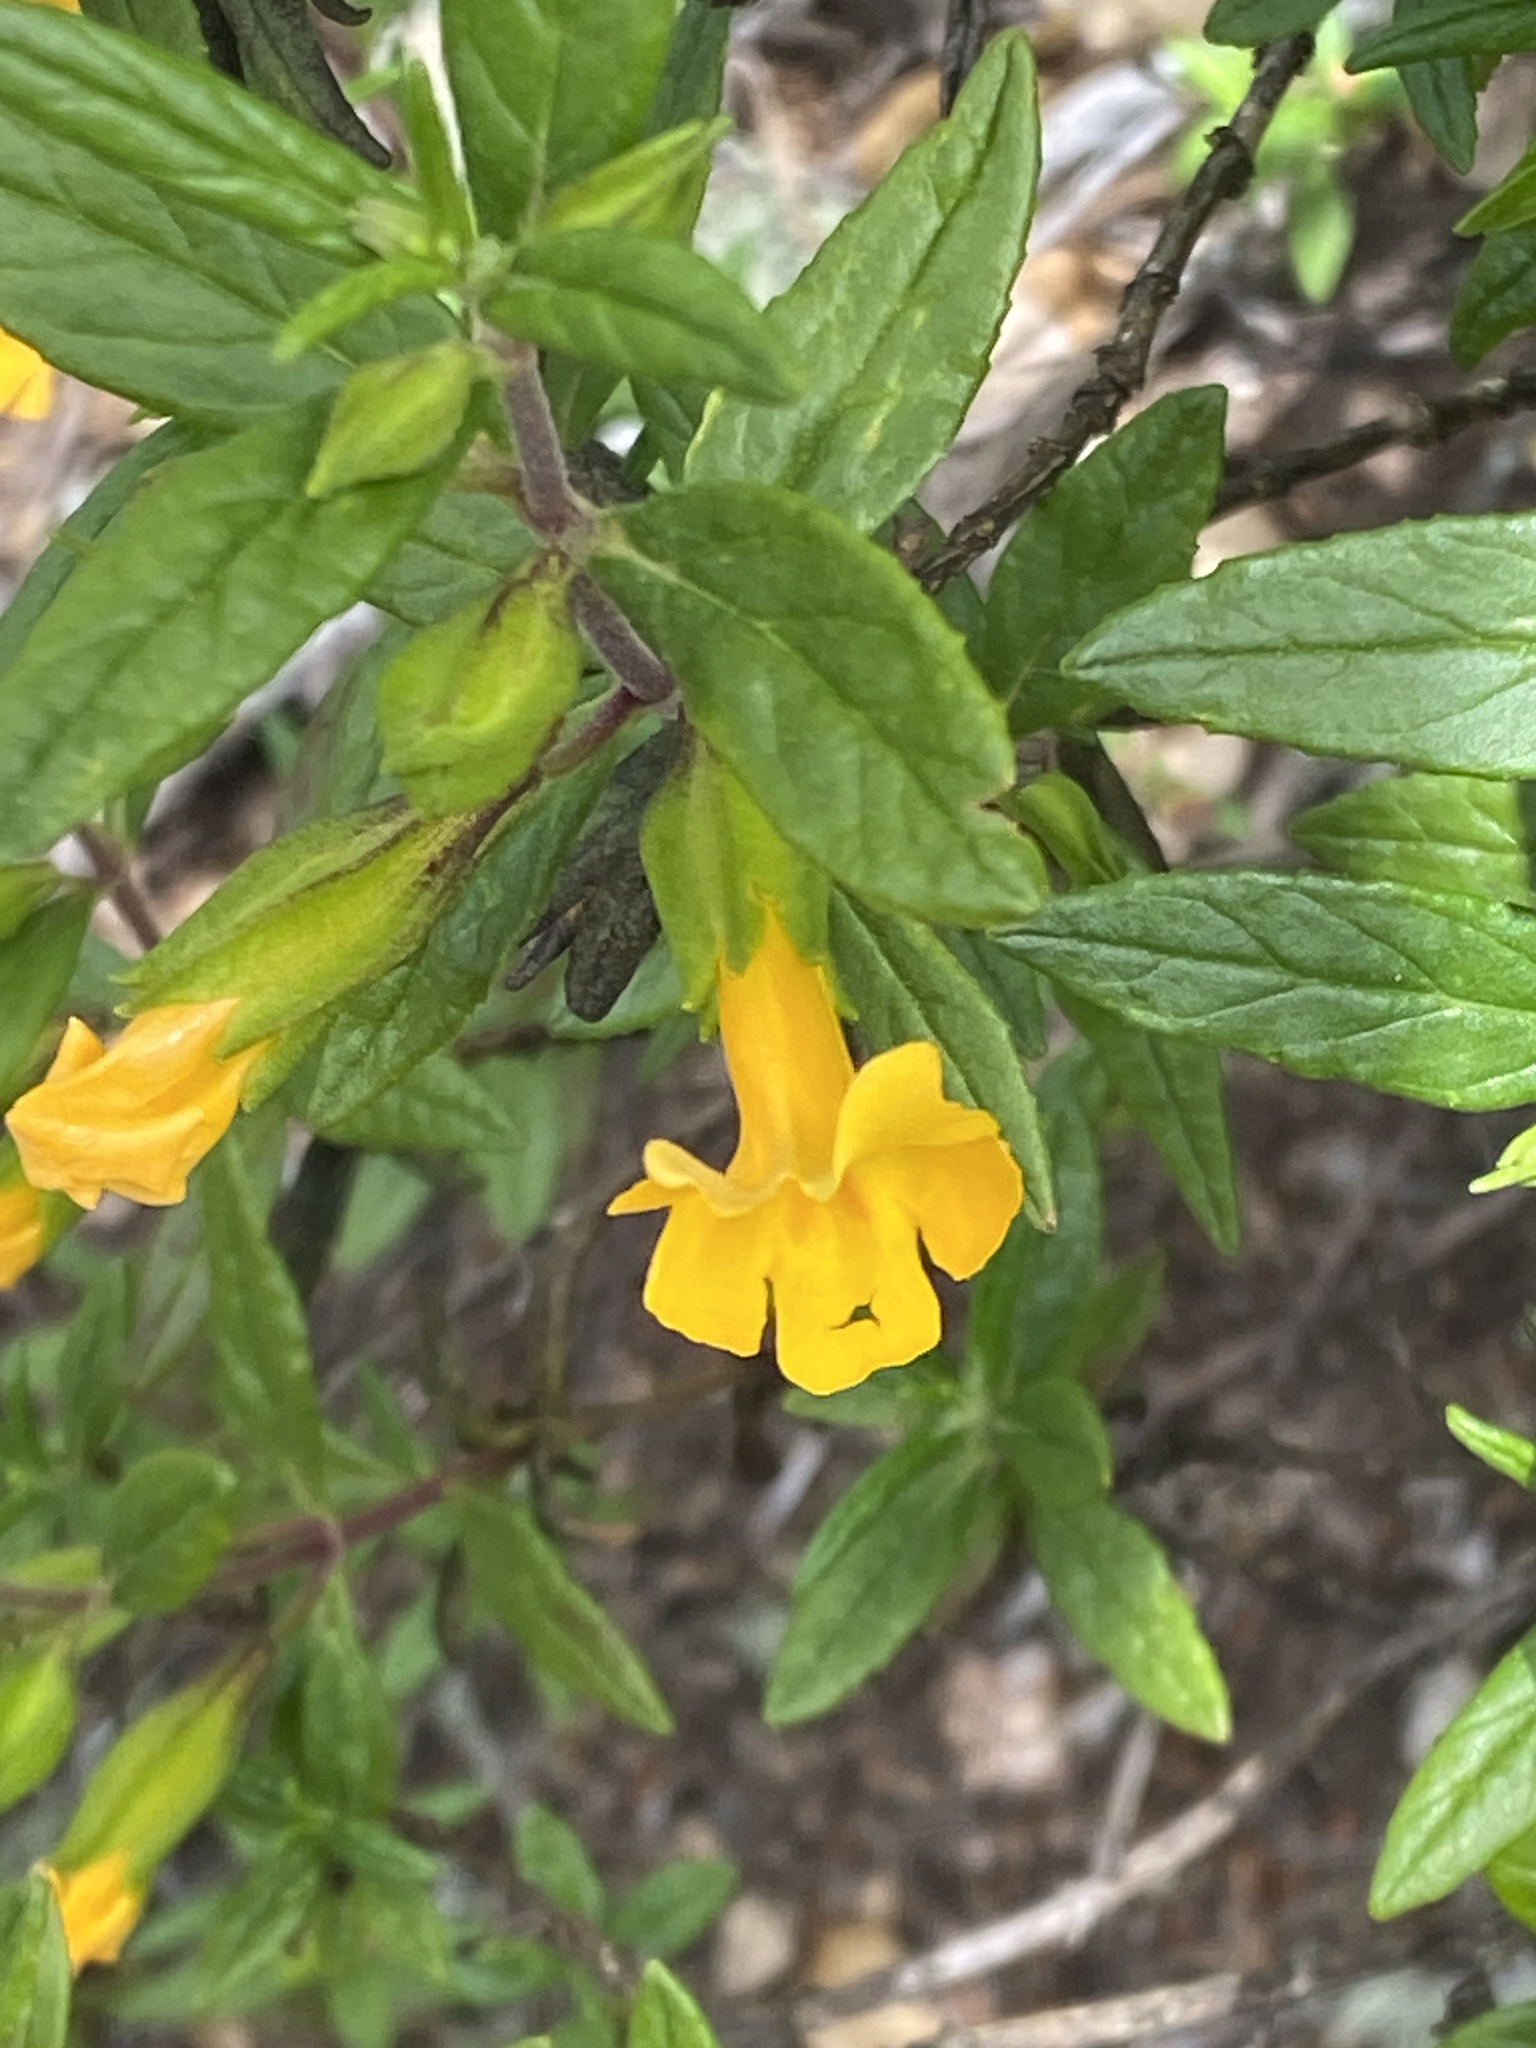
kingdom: Plantae
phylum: Tracheophyta
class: Magnoliopsida
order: Lamiales
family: Phrymaceae
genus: Diplacus
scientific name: Diplacus aurantiacus
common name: Bush monkey-flower
